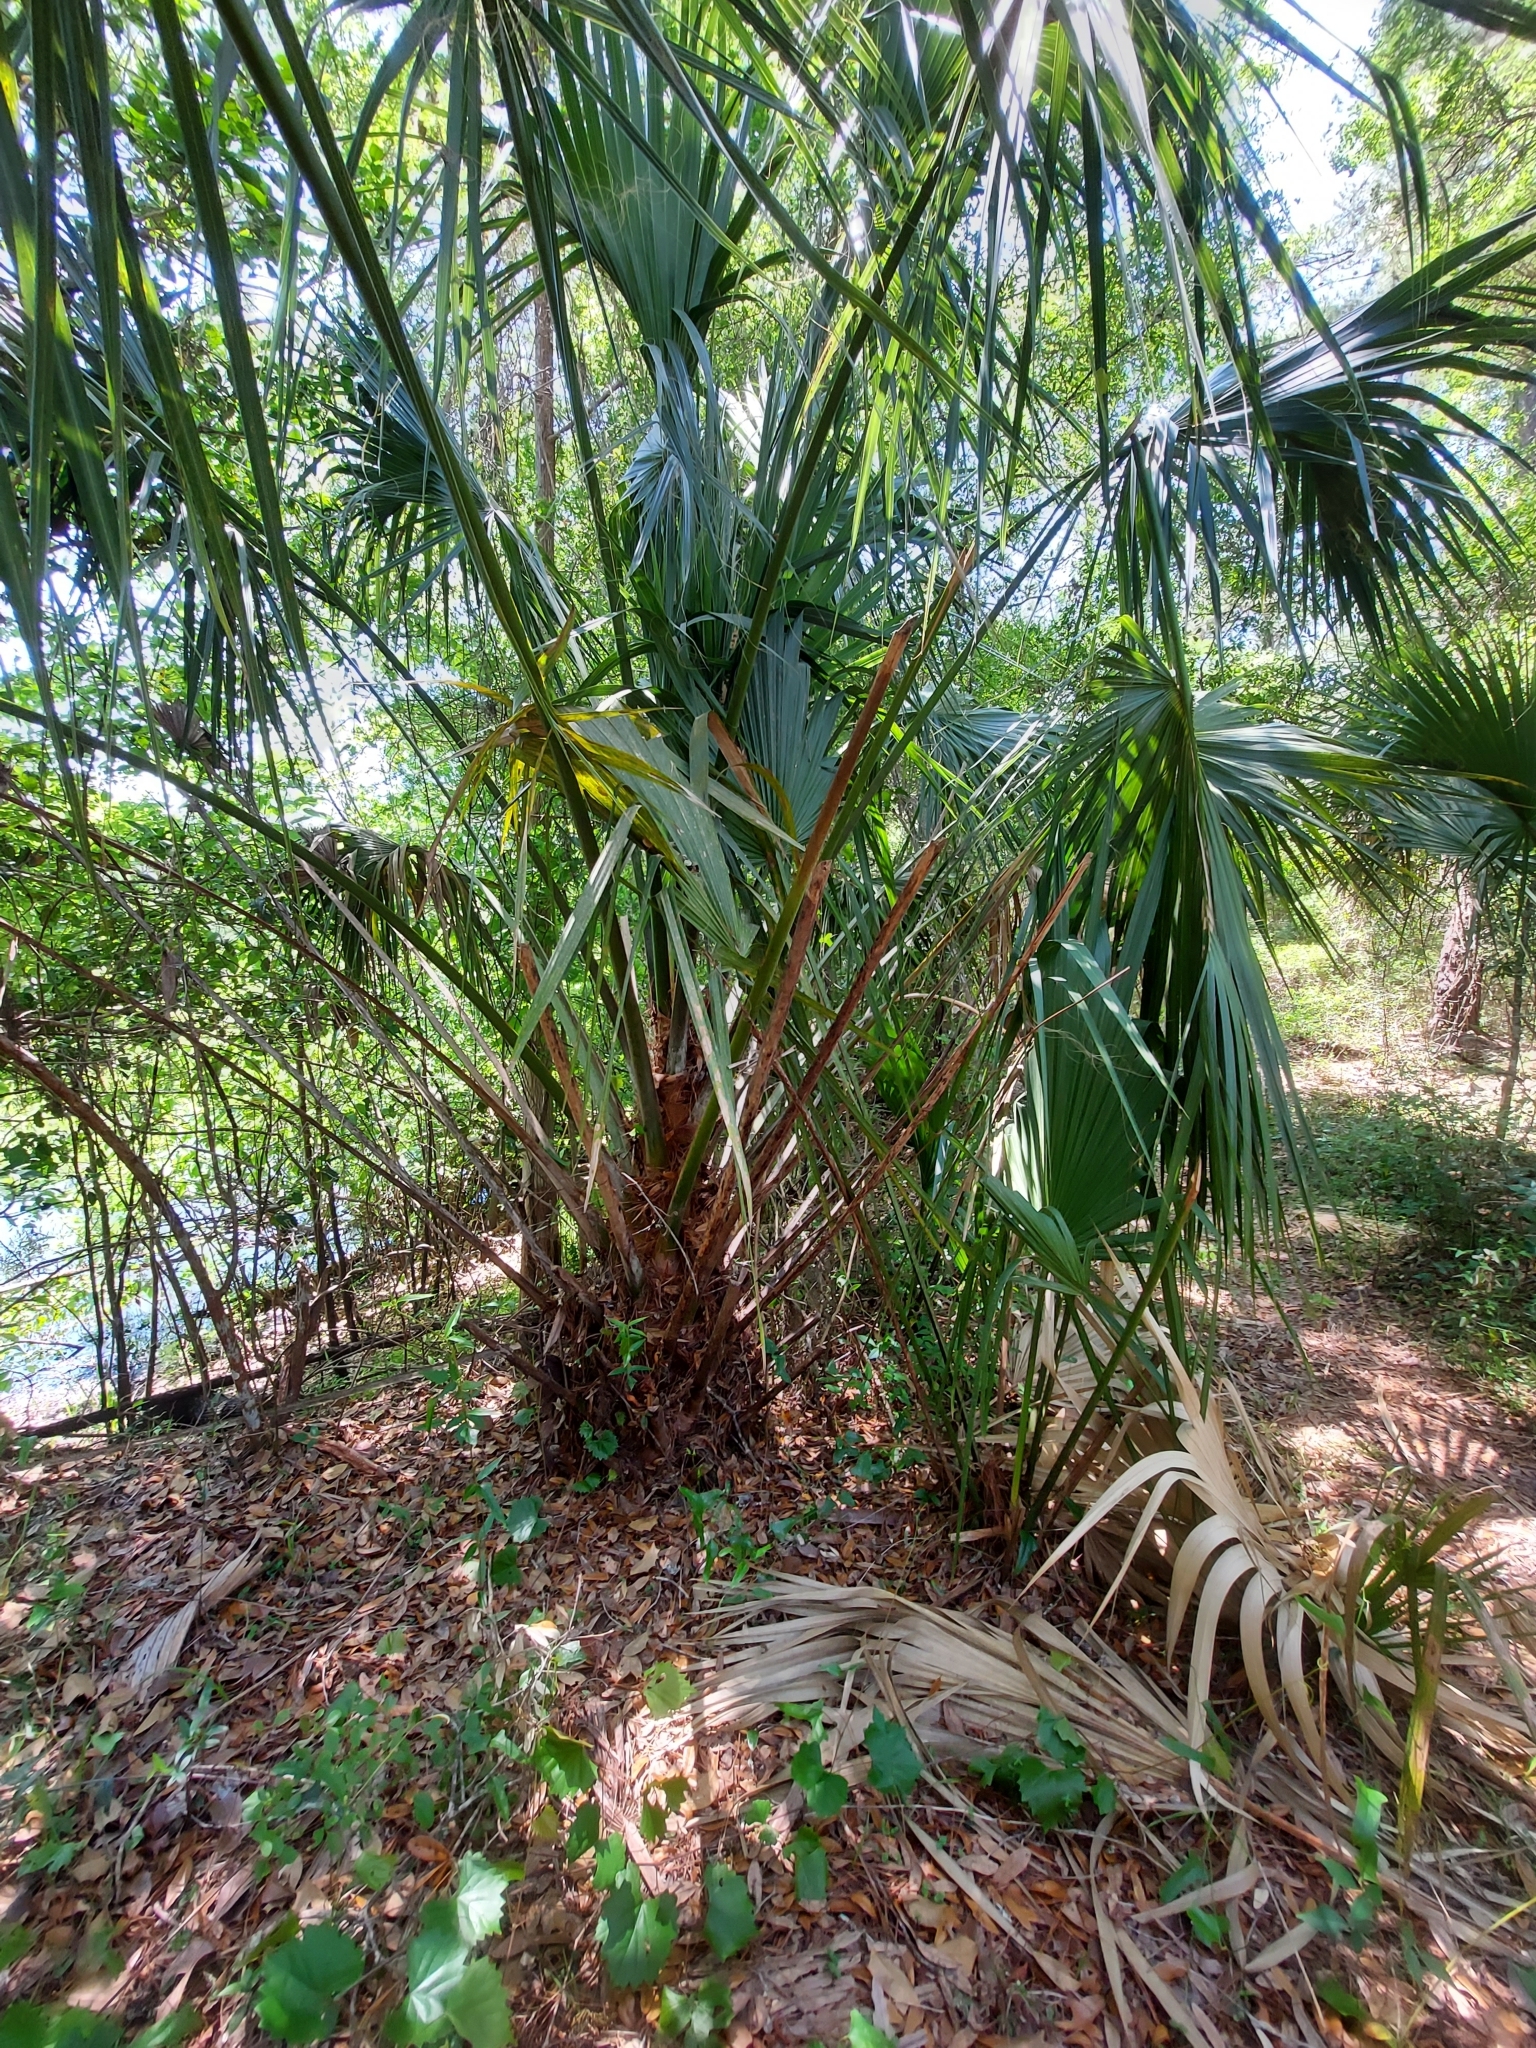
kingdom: Plantae
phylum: Tracheophyta
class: Liliopsida
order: Arecales
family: Arecaceae
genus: Sabal
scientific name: Sabal palmetto
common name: Blue palmetto
